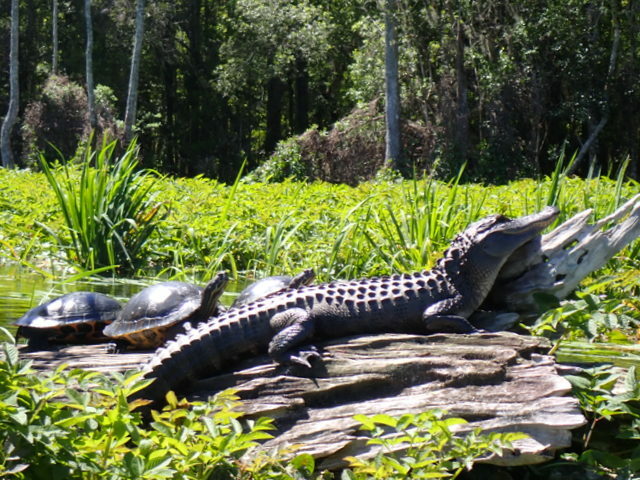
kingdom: Animalia
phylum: Chordata
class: Crocodylia
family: Alligatoridae
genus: Alligator
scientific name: Alligator mississippiensis
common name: American alligator
